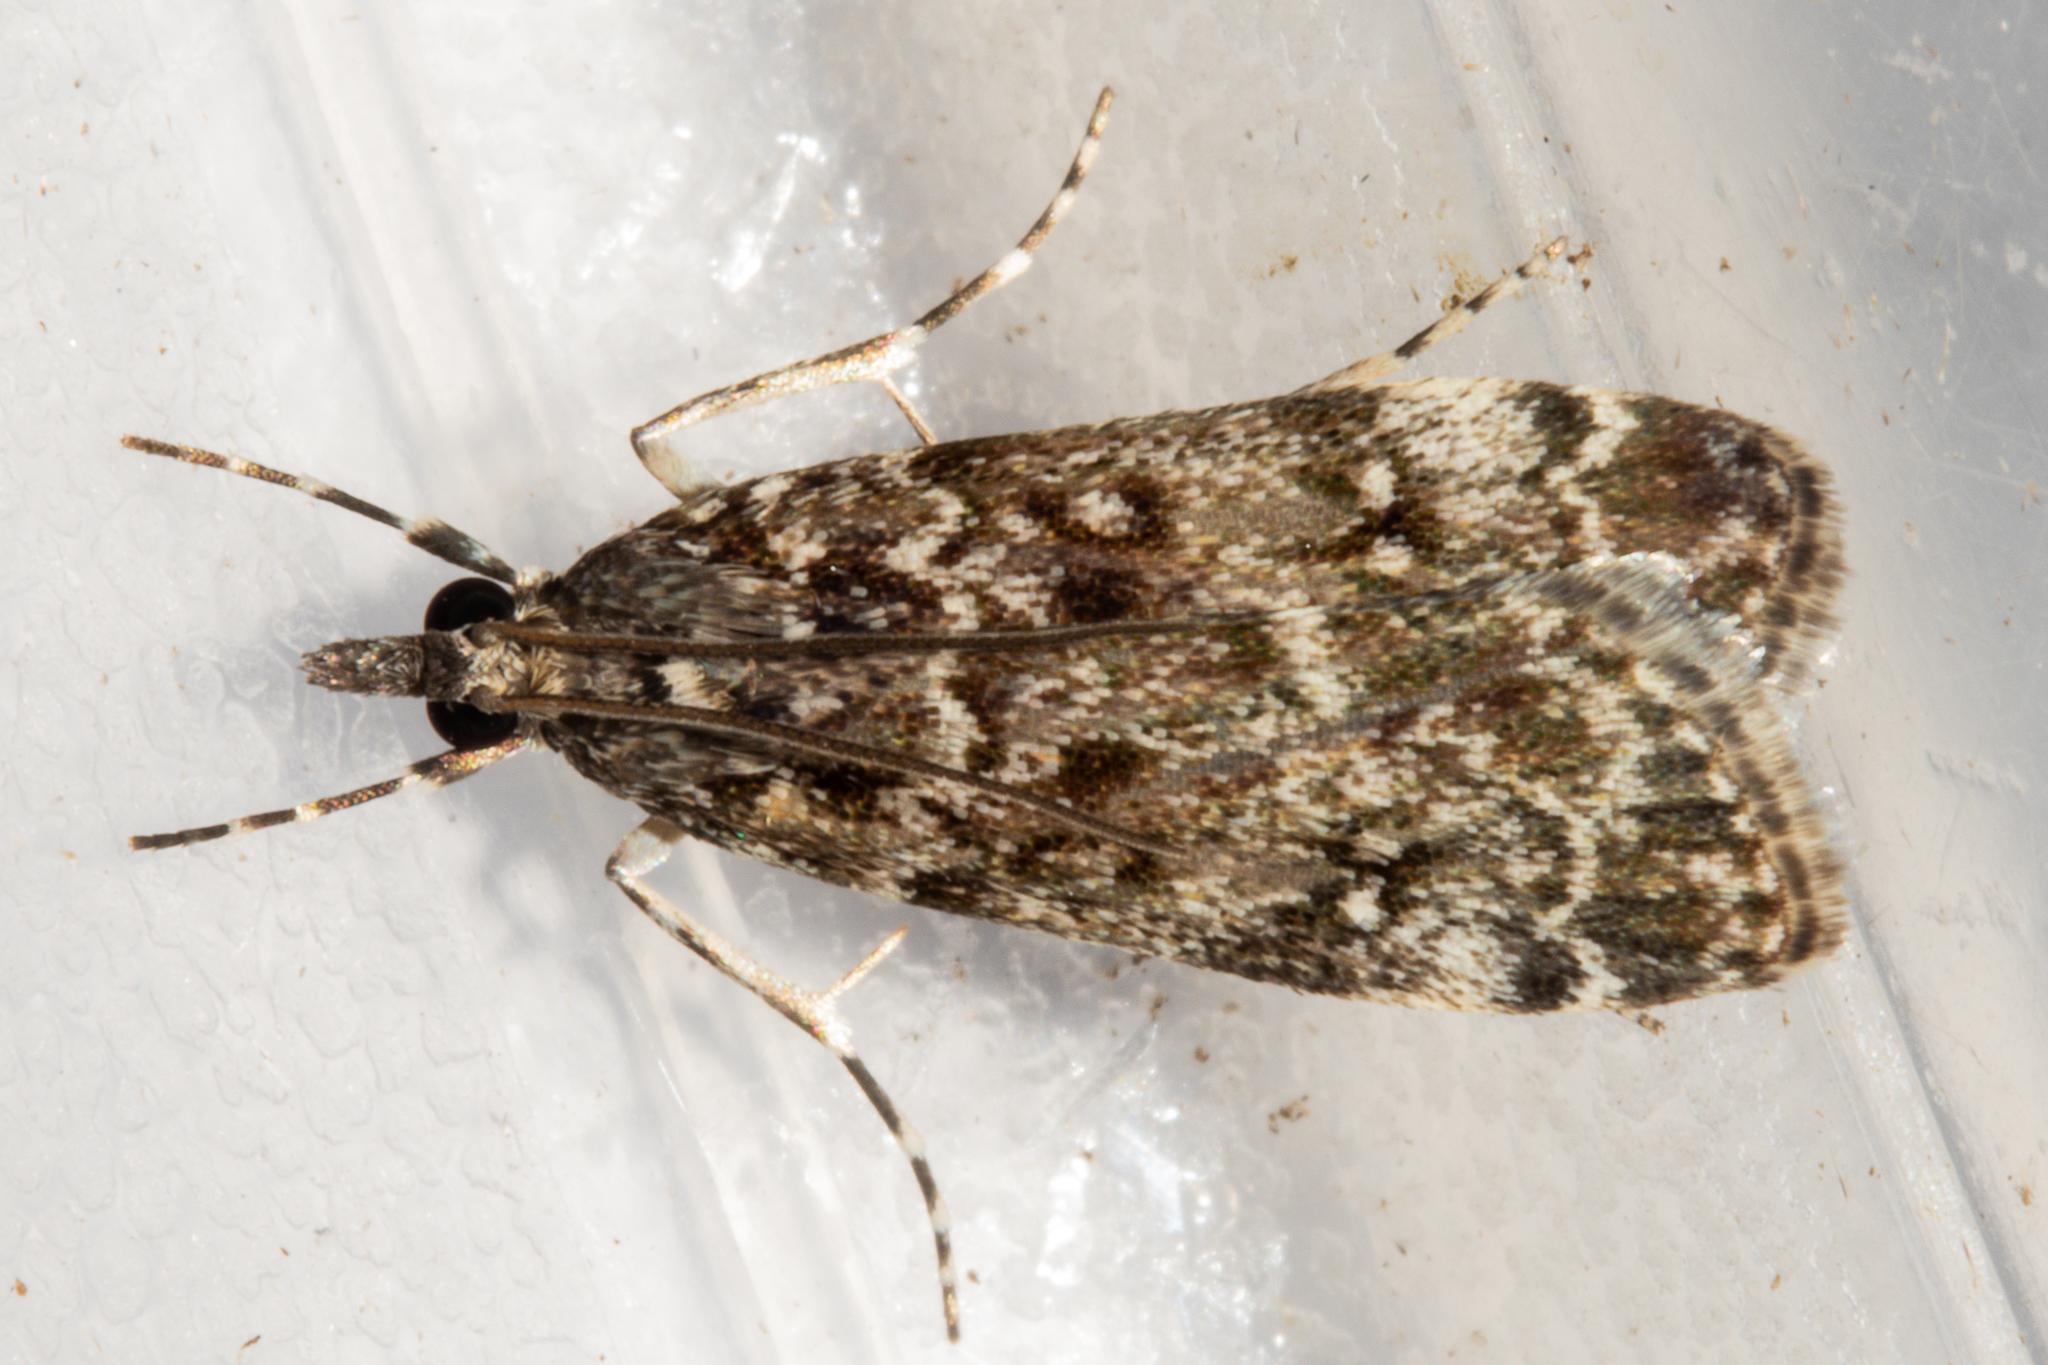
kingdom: Animalia
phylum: Arthropoda
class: Insecta
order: Lepidoptera
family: Crambidae
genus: Eudonia
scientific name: Eudonia philerga
